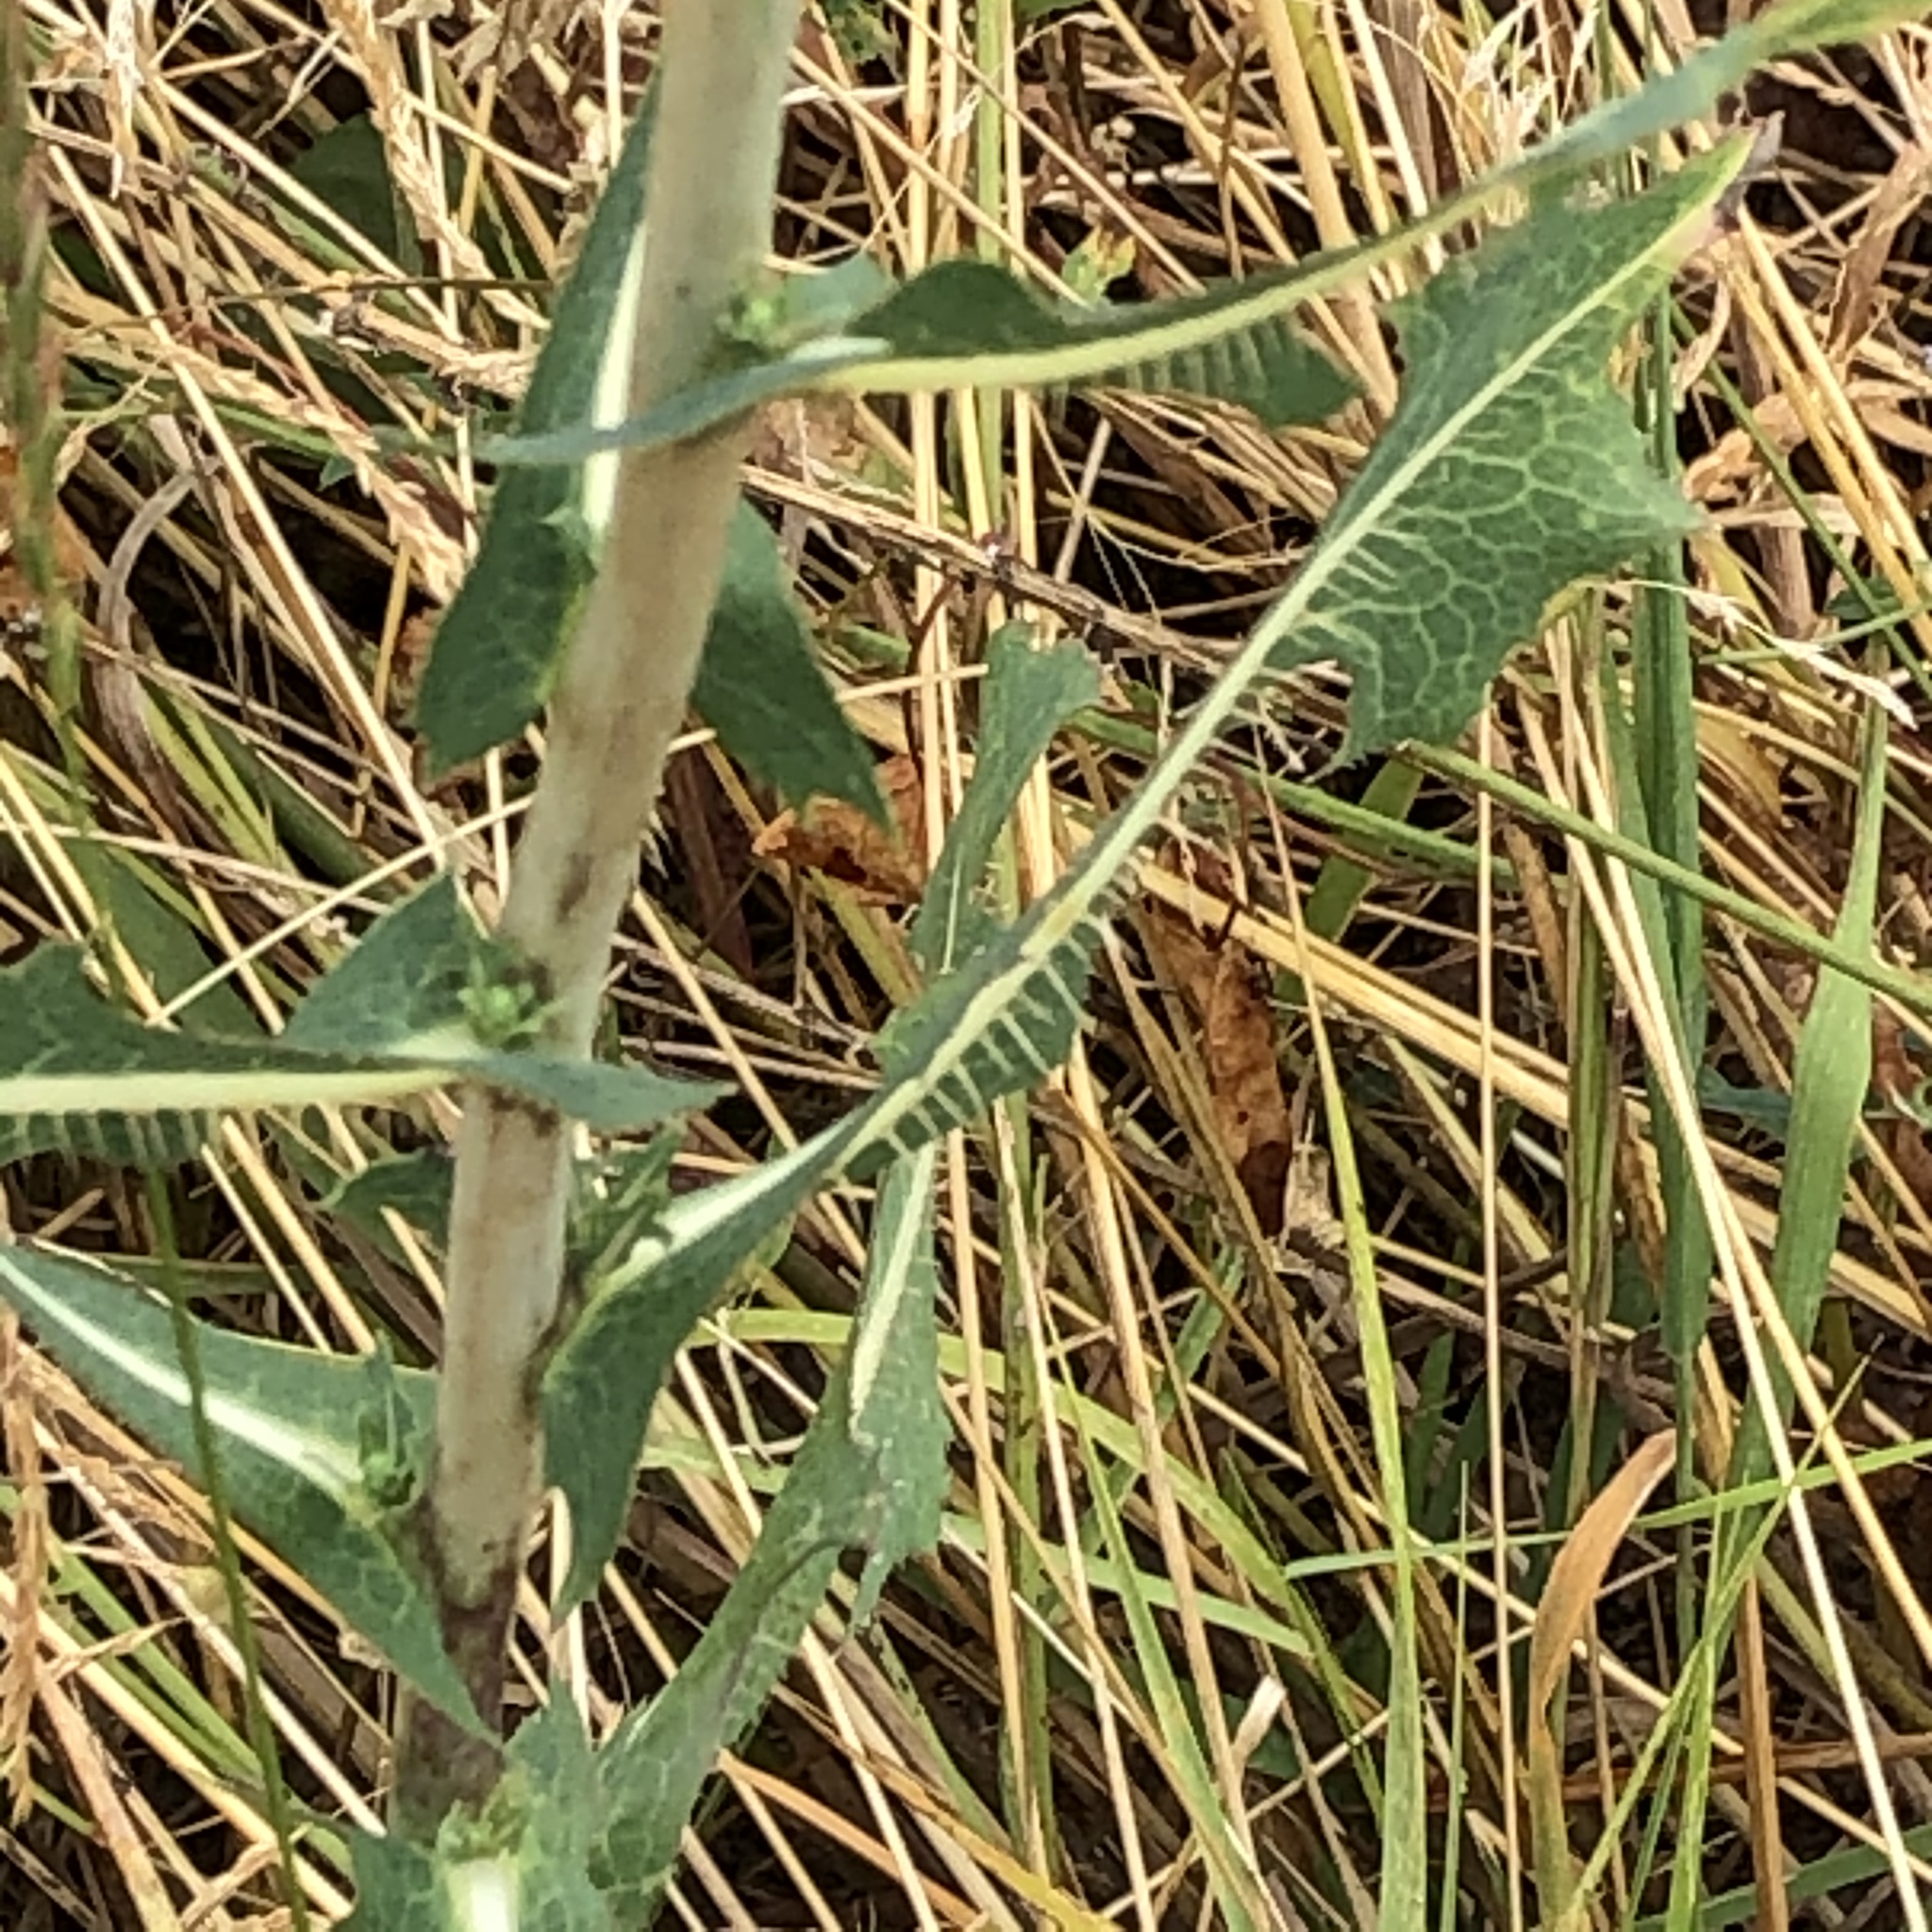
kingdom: Plantae
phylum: Tracheophyta
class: Magnoliopsida
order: Asterales
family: Asteraceae
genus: Lactuca
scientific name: Lactuca serriola
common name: Prickly lettuce
